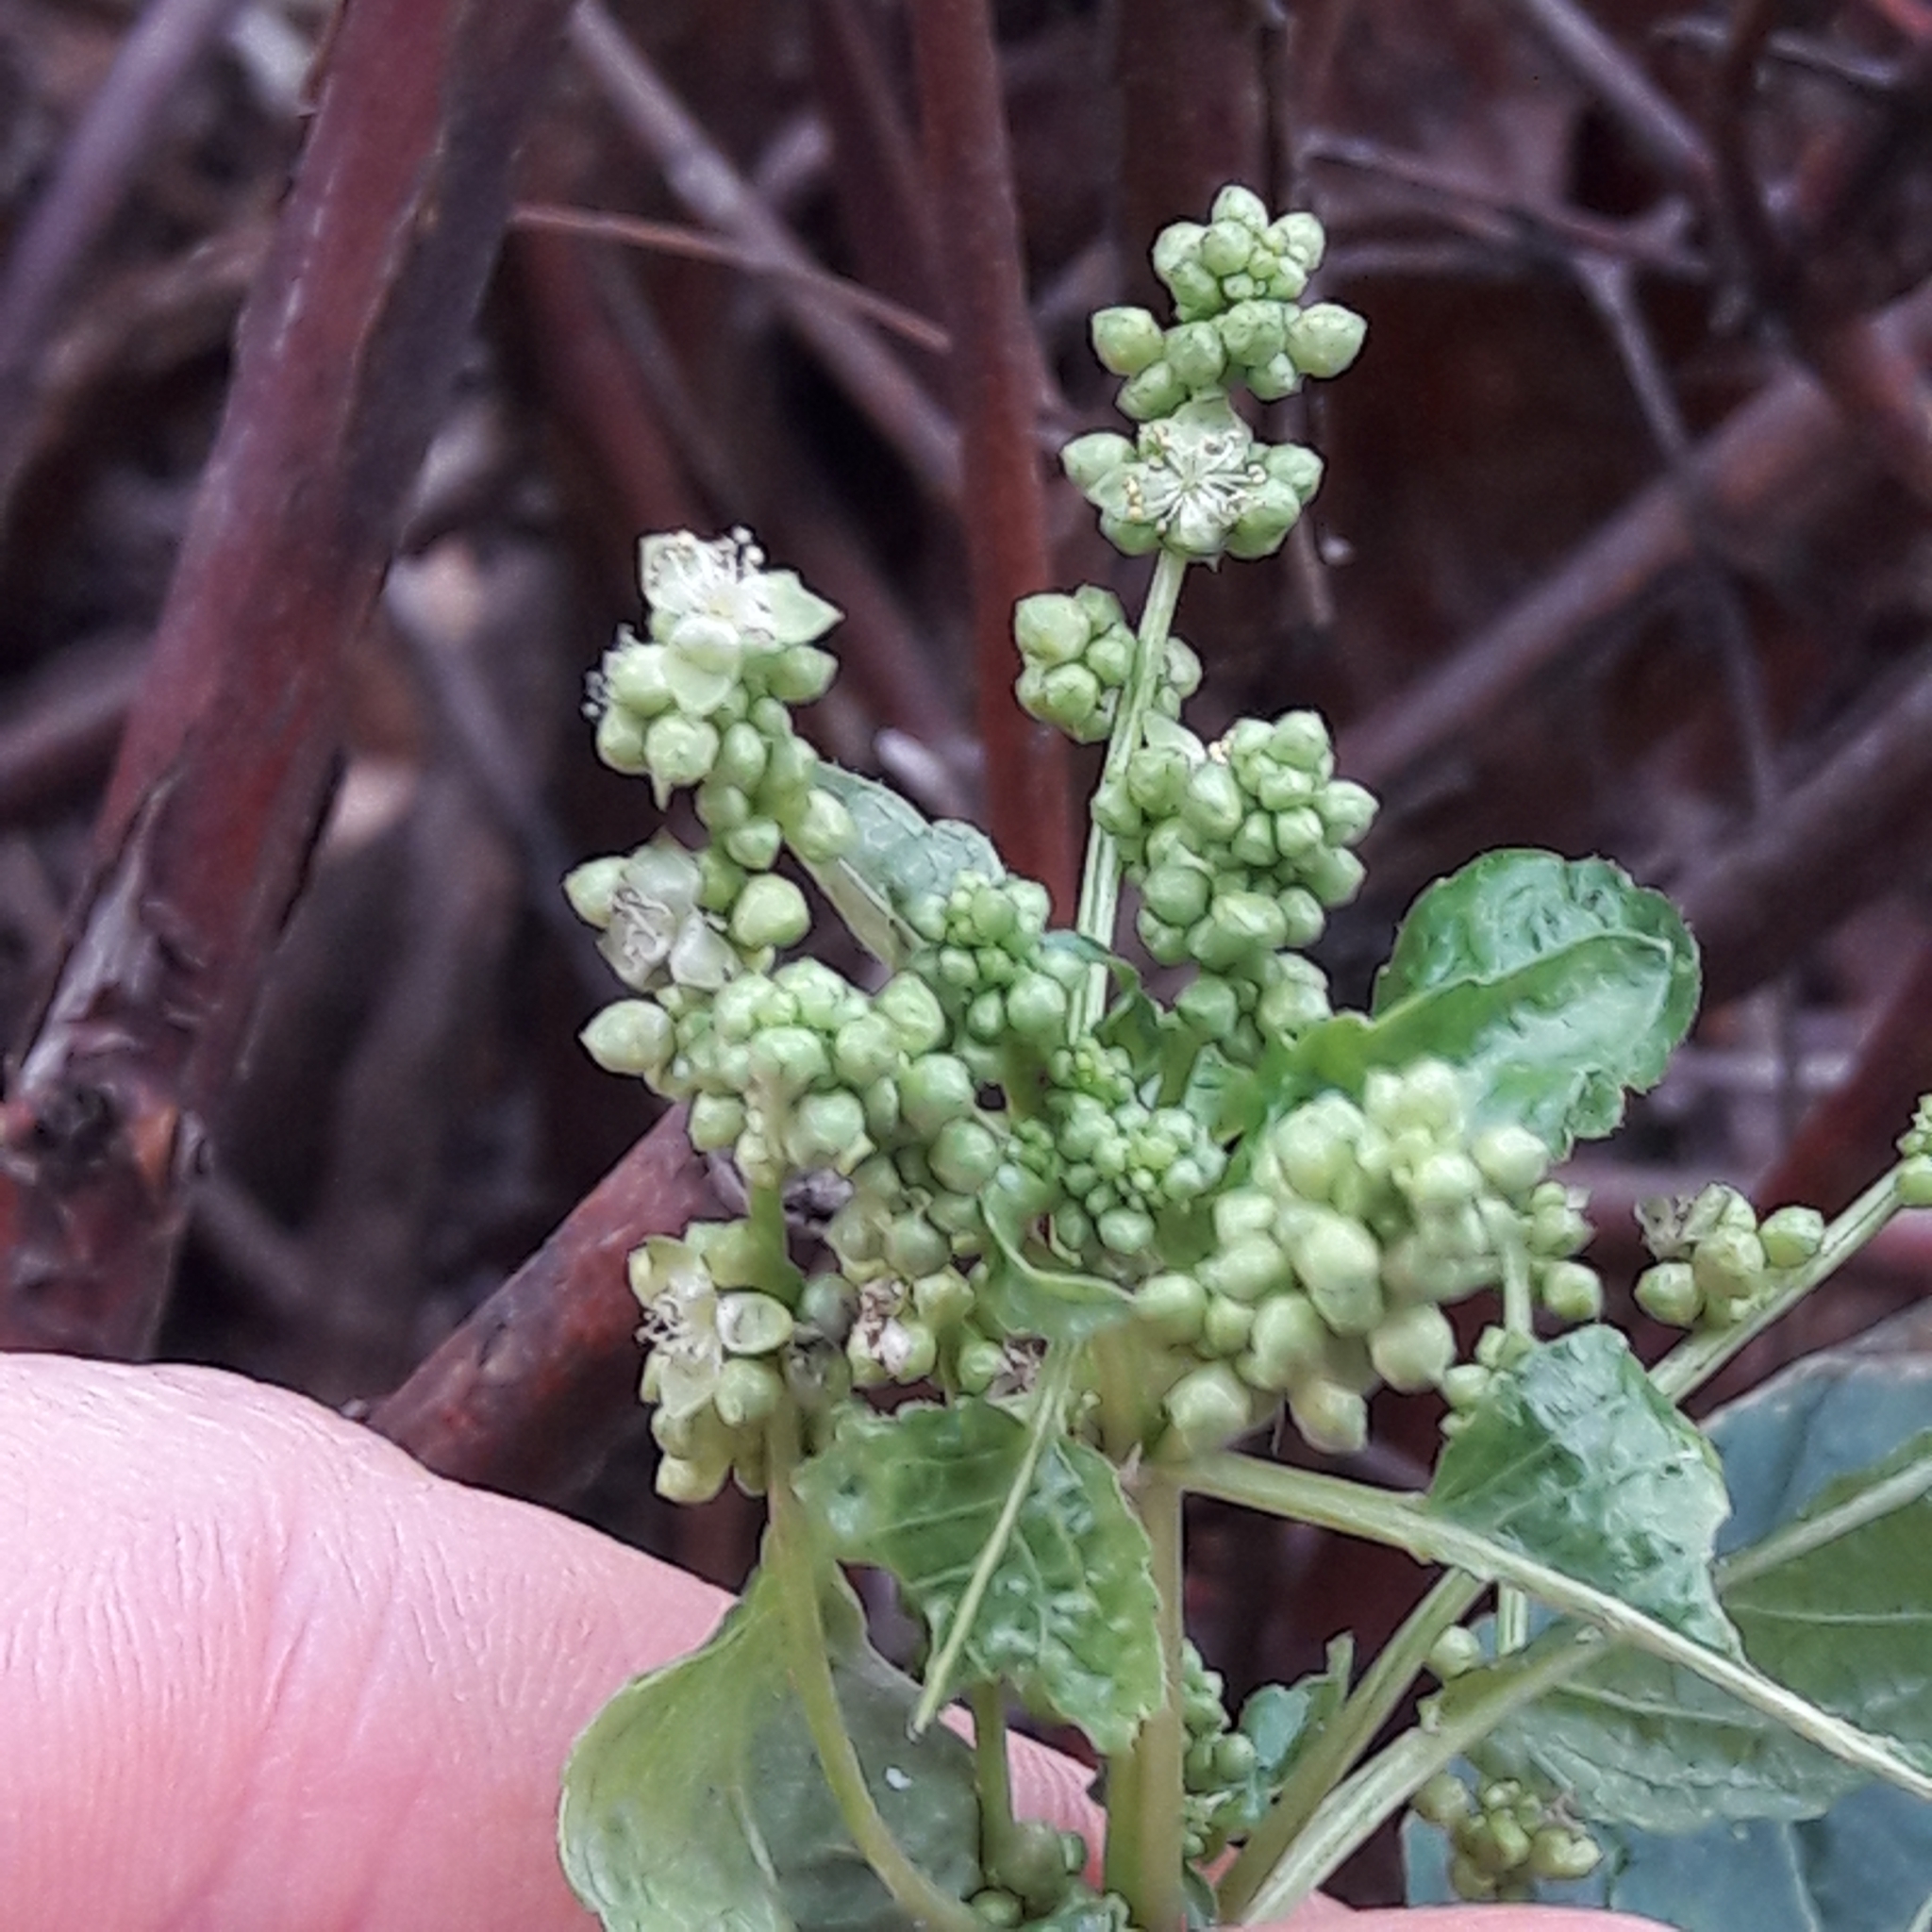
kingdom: Plantae
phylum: Tracheophyta
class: Magnoliopsida
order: Malpighiales
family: Euphorbiaceae
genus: Mercurialis
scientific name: Mercurialis annua
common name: Annual mercury
